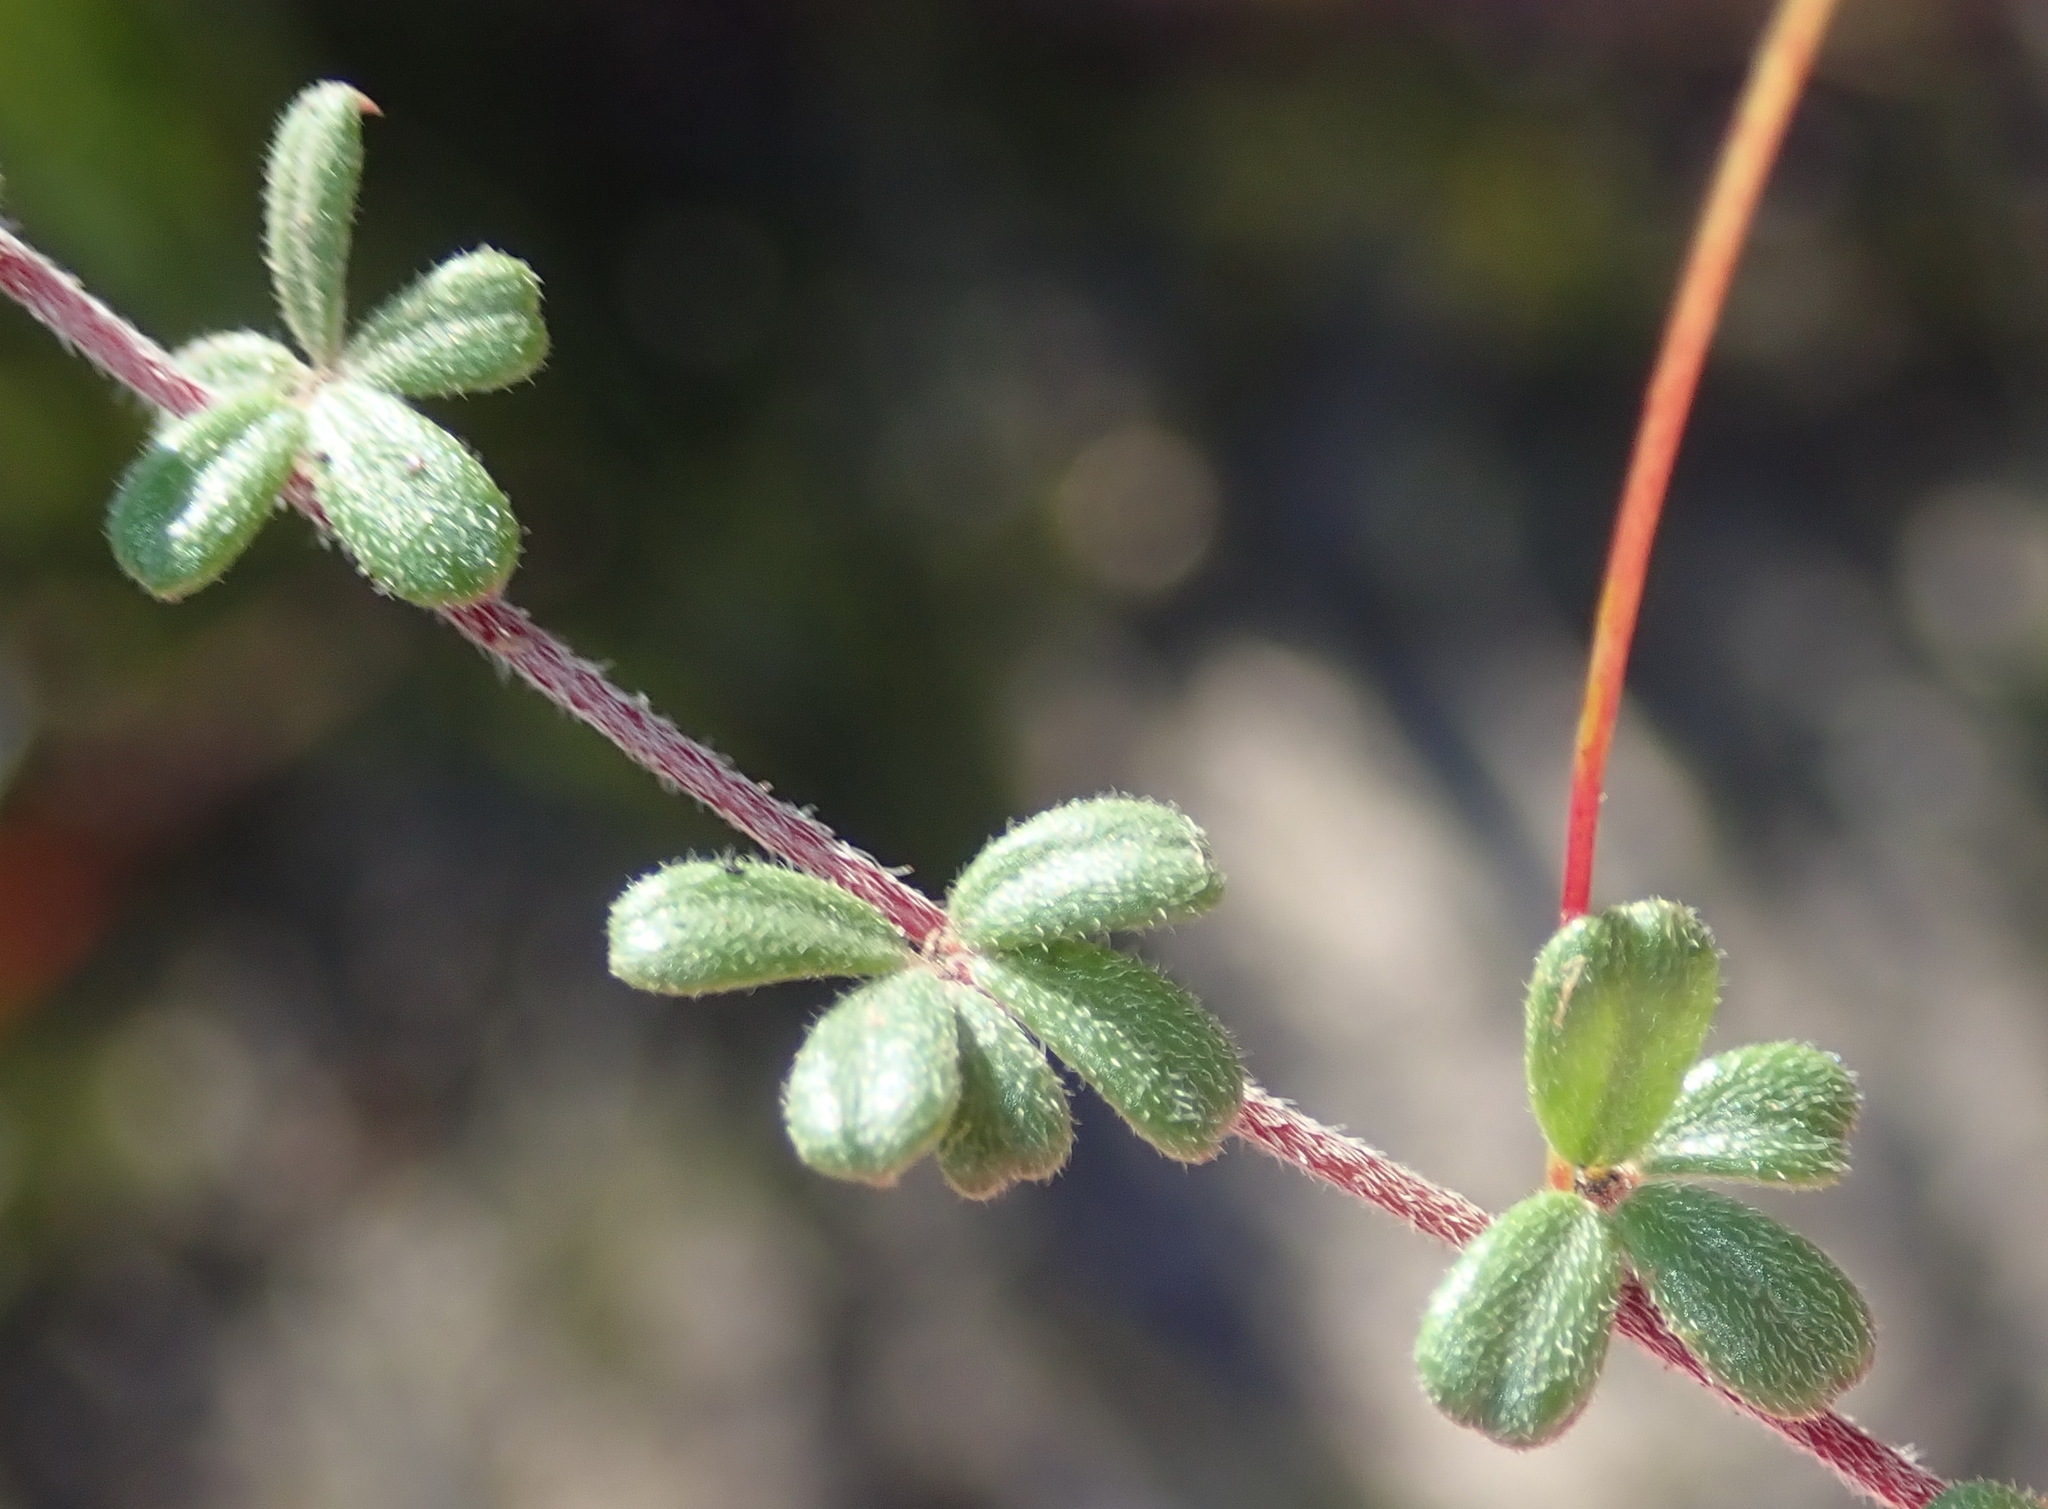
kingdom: Plantae
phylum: Tracheophyta
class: Magnoliopsida
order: Fabales
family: Fabaceae
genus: Indigofera
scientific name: Indigofera
